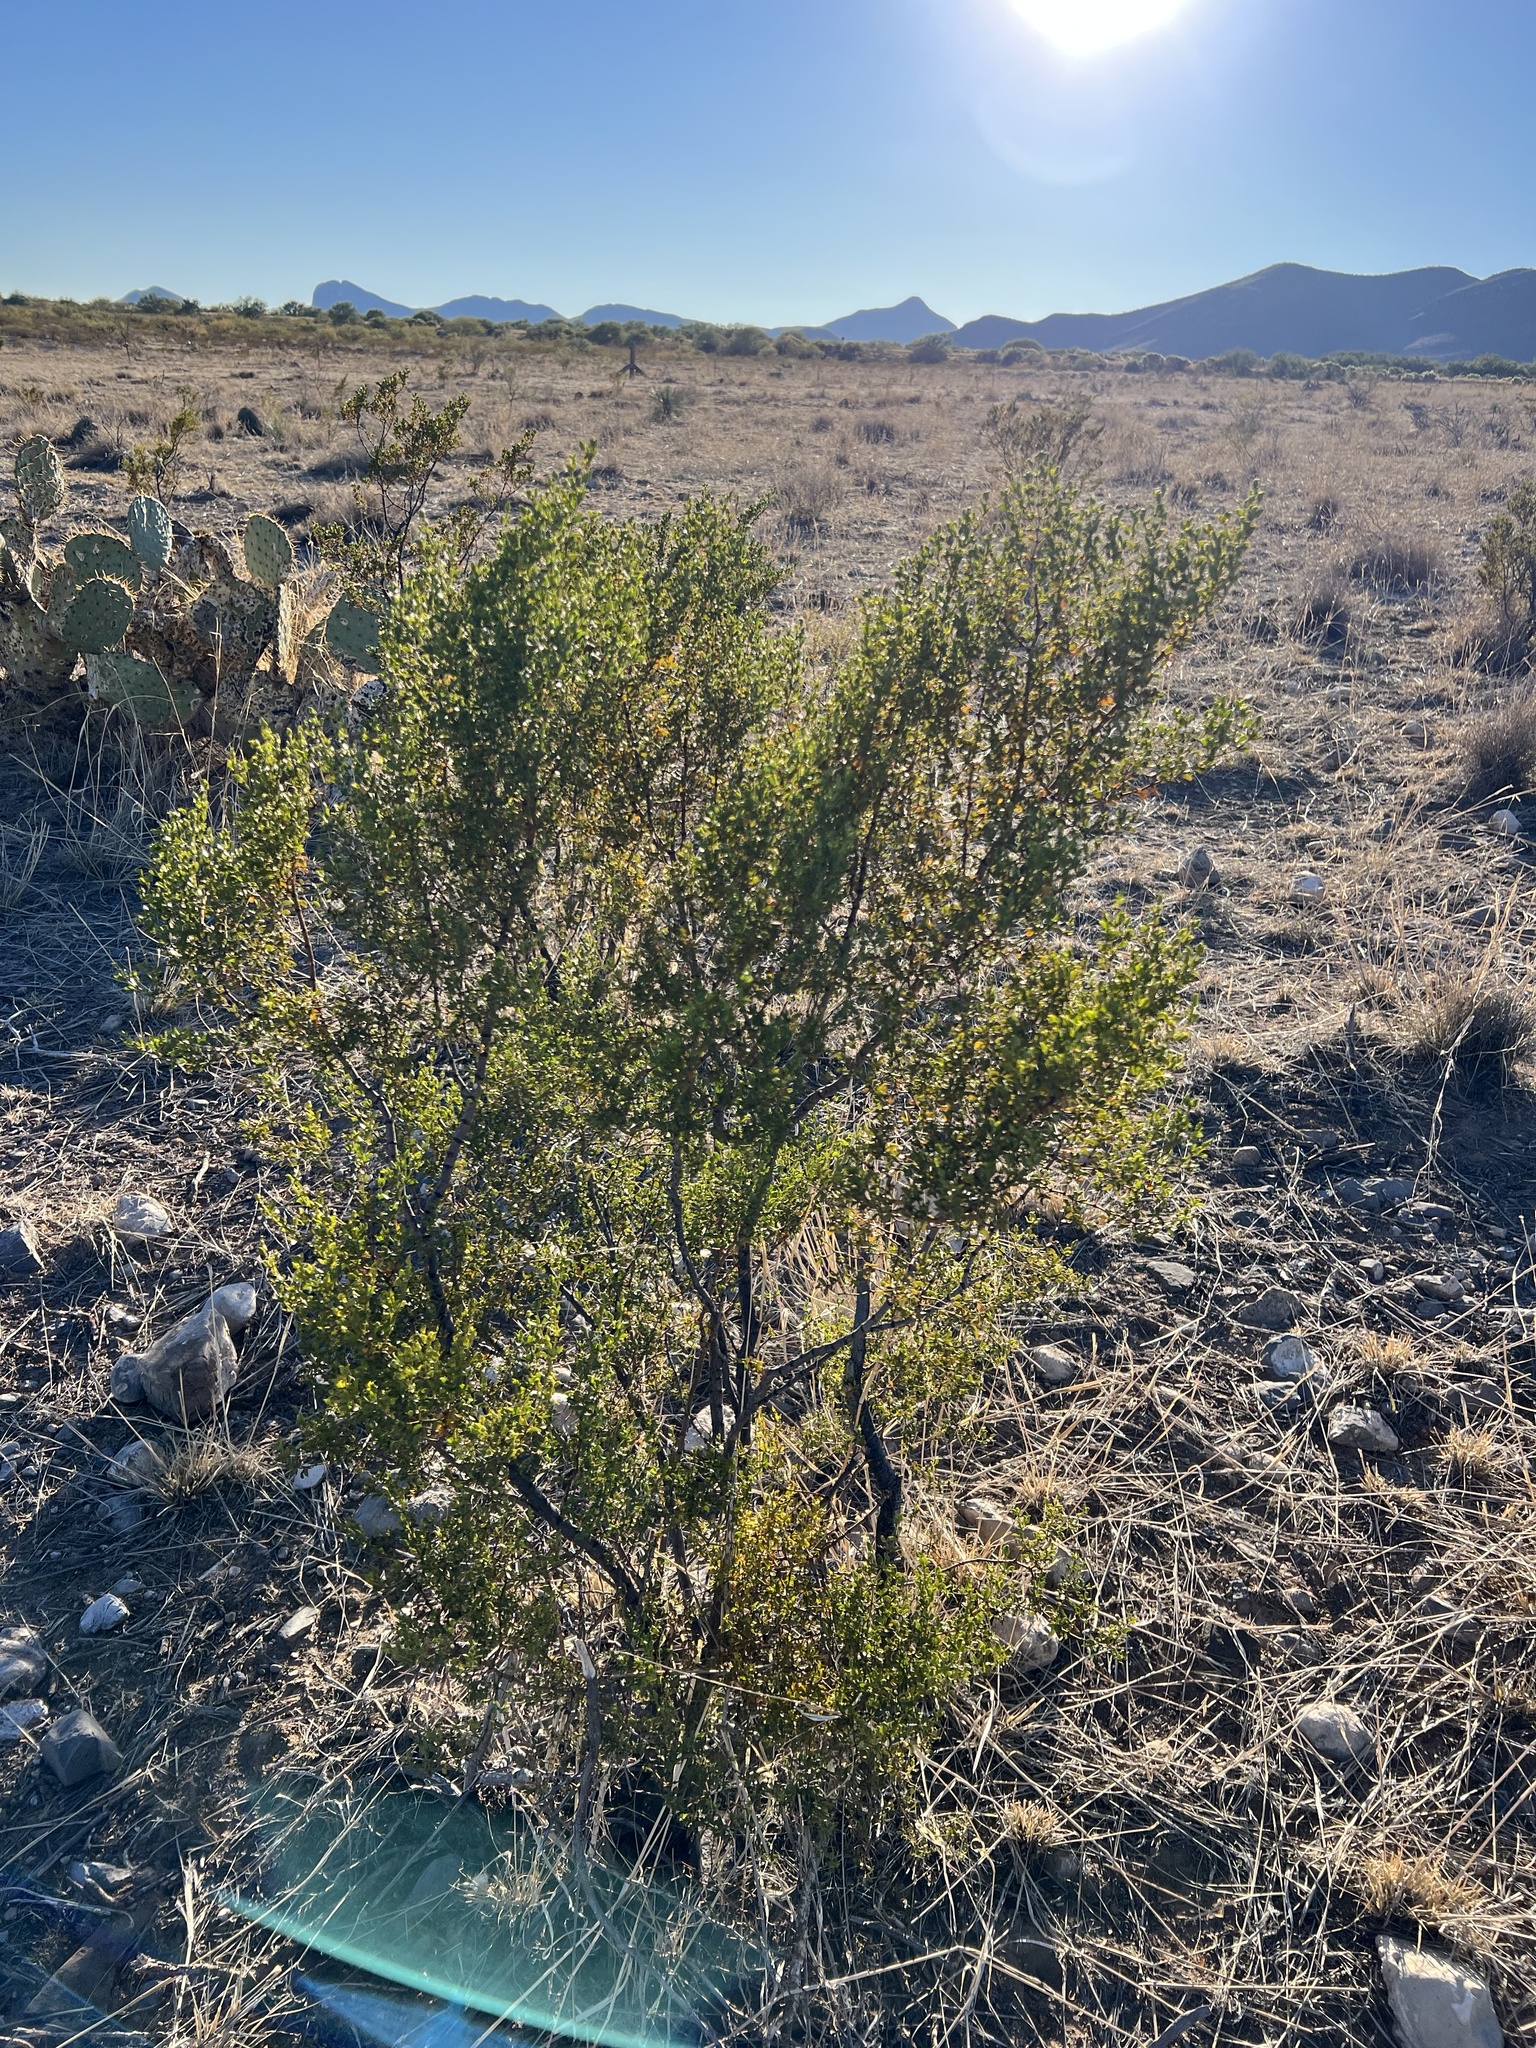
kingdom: Plantae
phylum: Tracheophyta
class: Magnoliopsida
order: Zygophyllales
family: Zygophyllaceae
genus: Larrea
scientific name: Larrea tridentata
